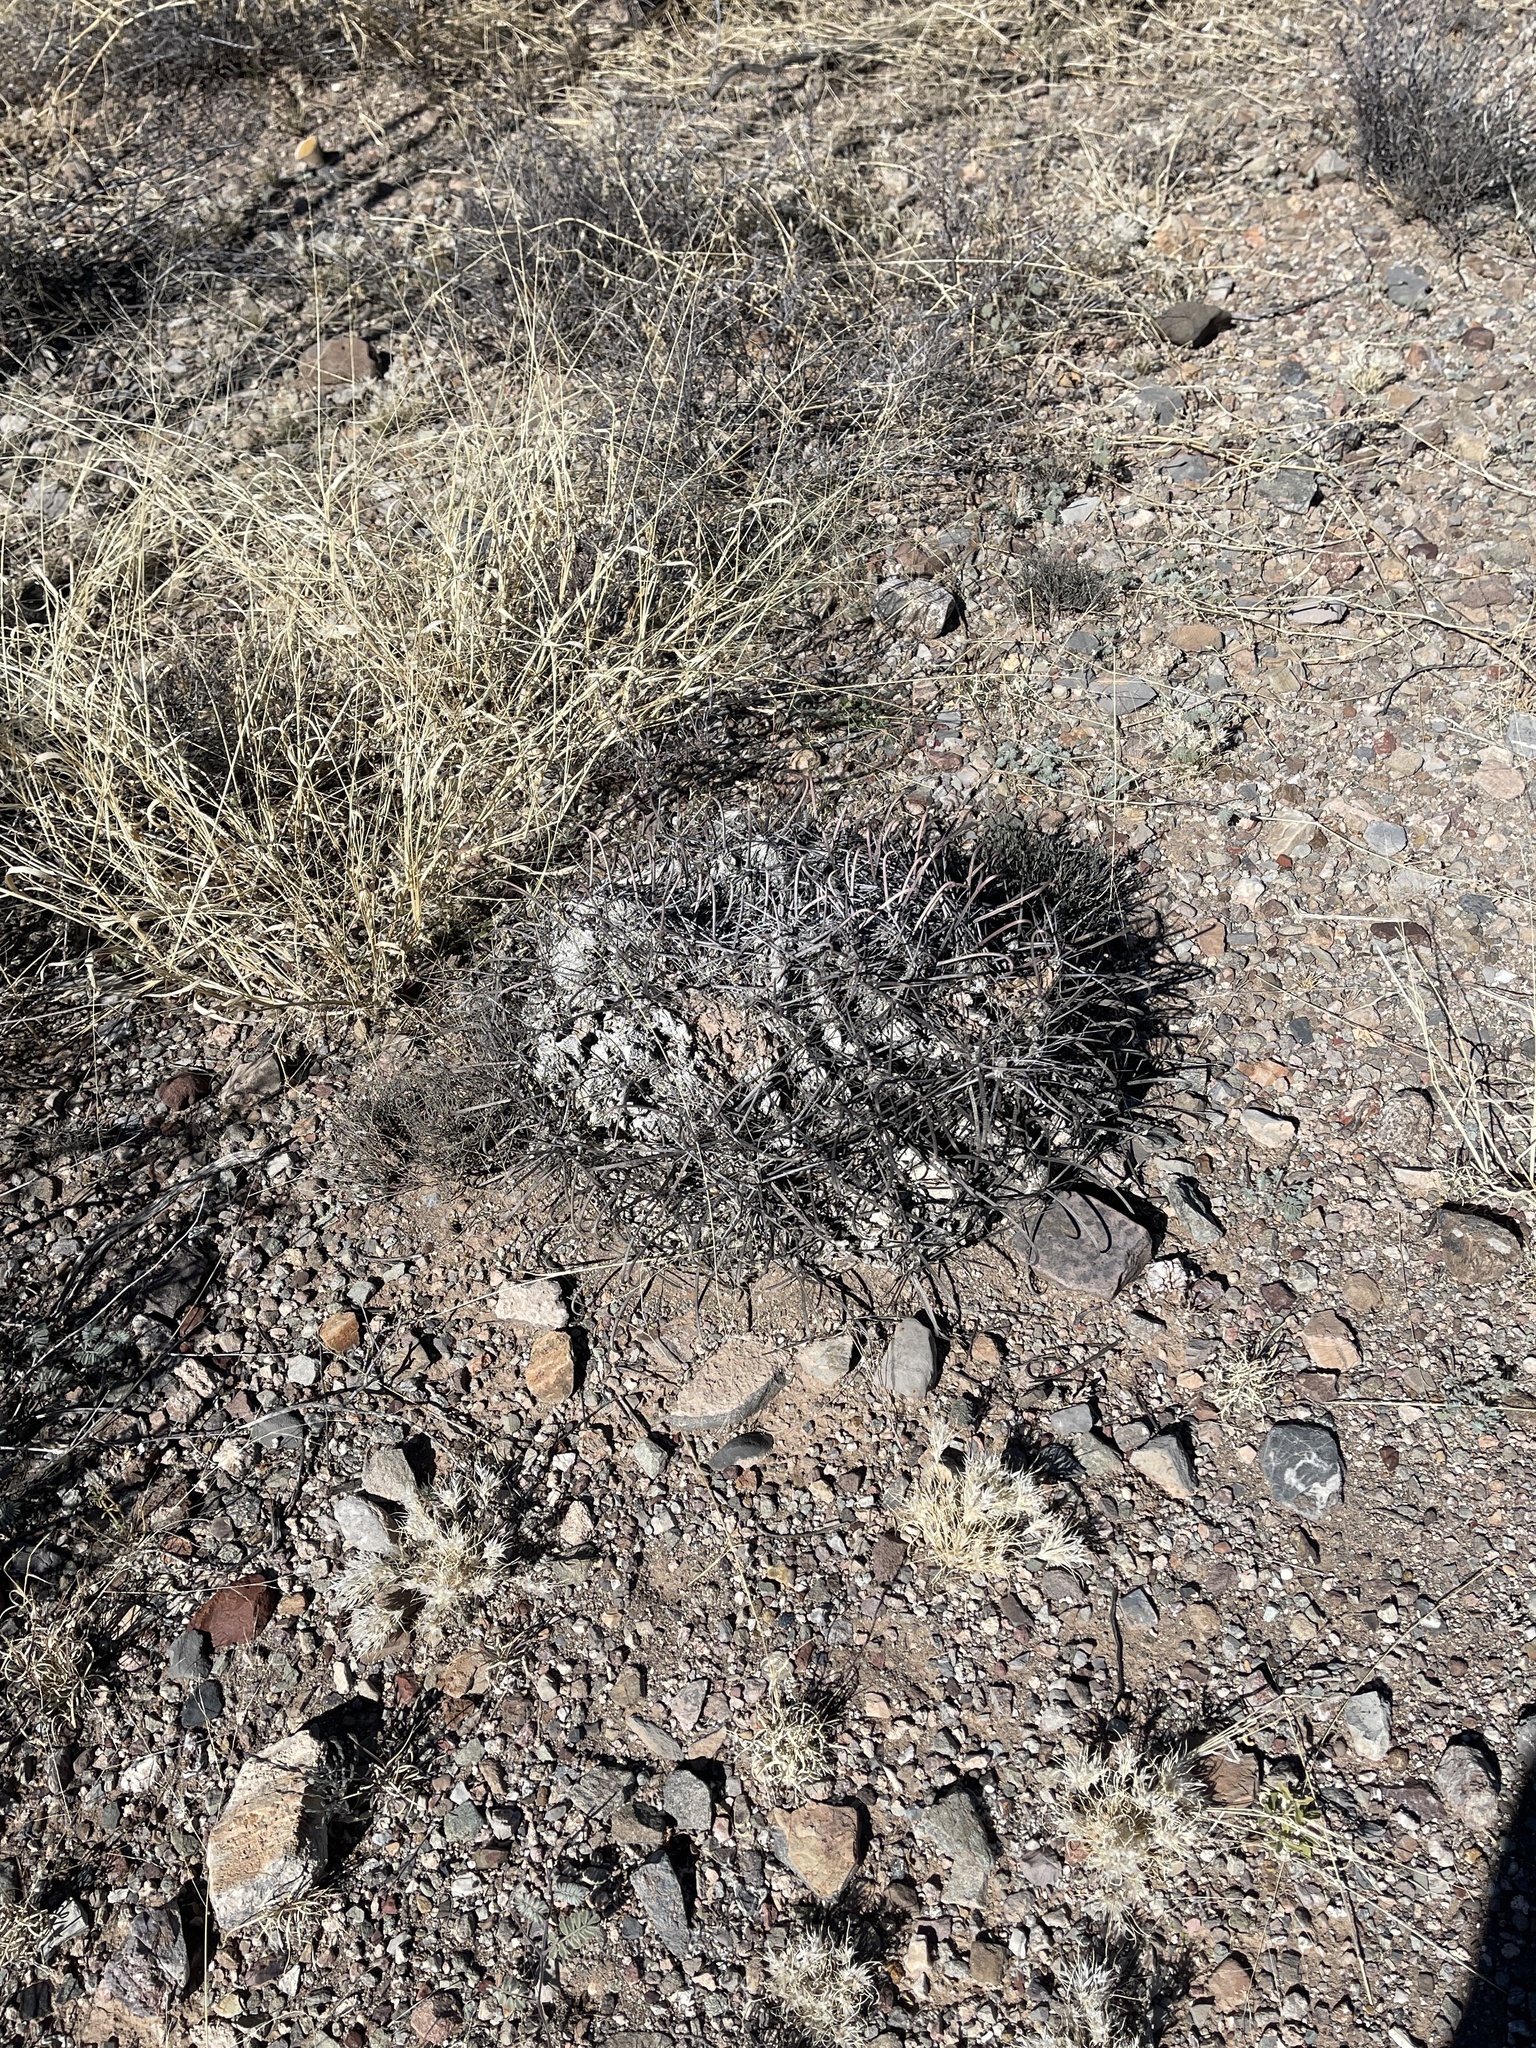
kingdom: Plantae
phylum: Tracheophyta
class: Magnoliopsida
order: Caryophyllales
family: Cactaceae
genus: Ferocactus
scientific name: Ferocactus wislizeni
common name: Candy barrel cactus
